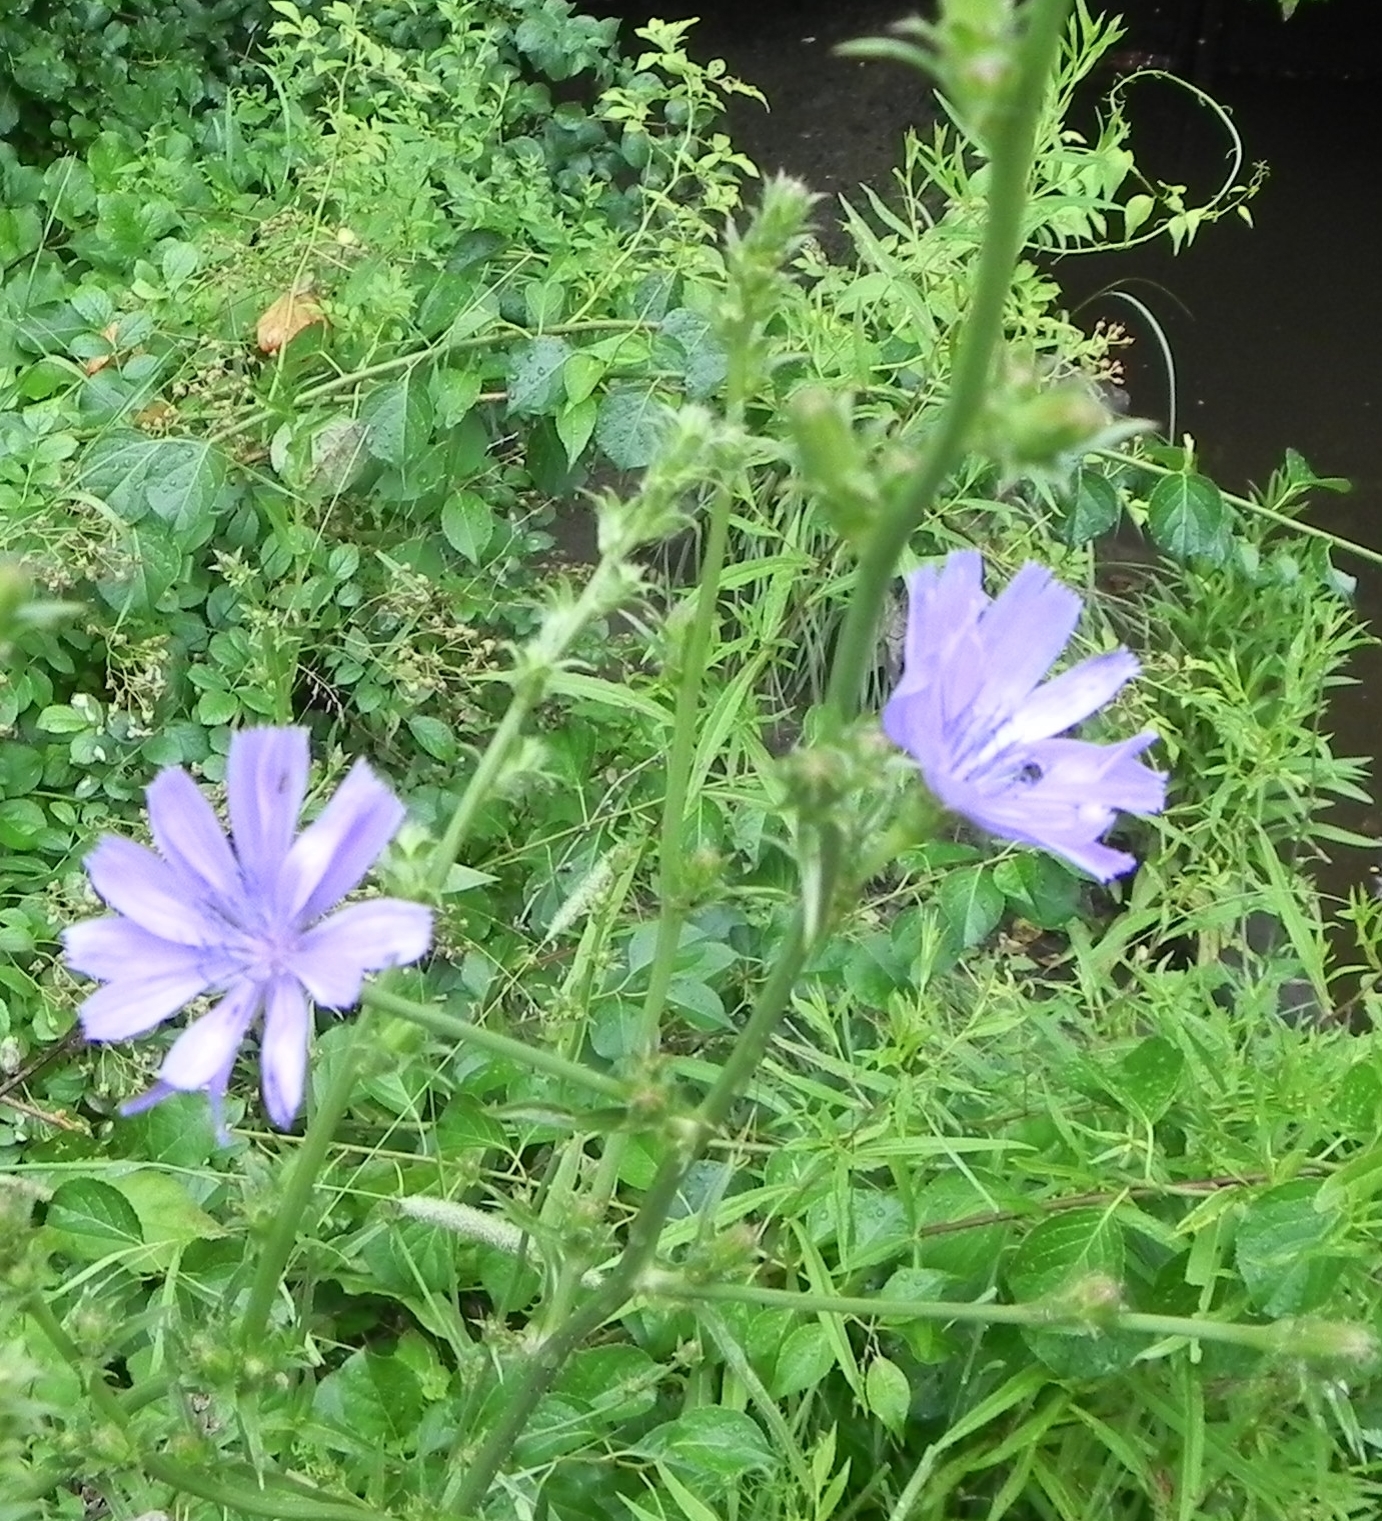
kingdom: Plantae
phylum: Tracheophyta
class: Magnoliopsida
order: Asterales
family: Asteraceae
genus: Cichorium
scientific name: Cichorium intybus
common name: Chicory
